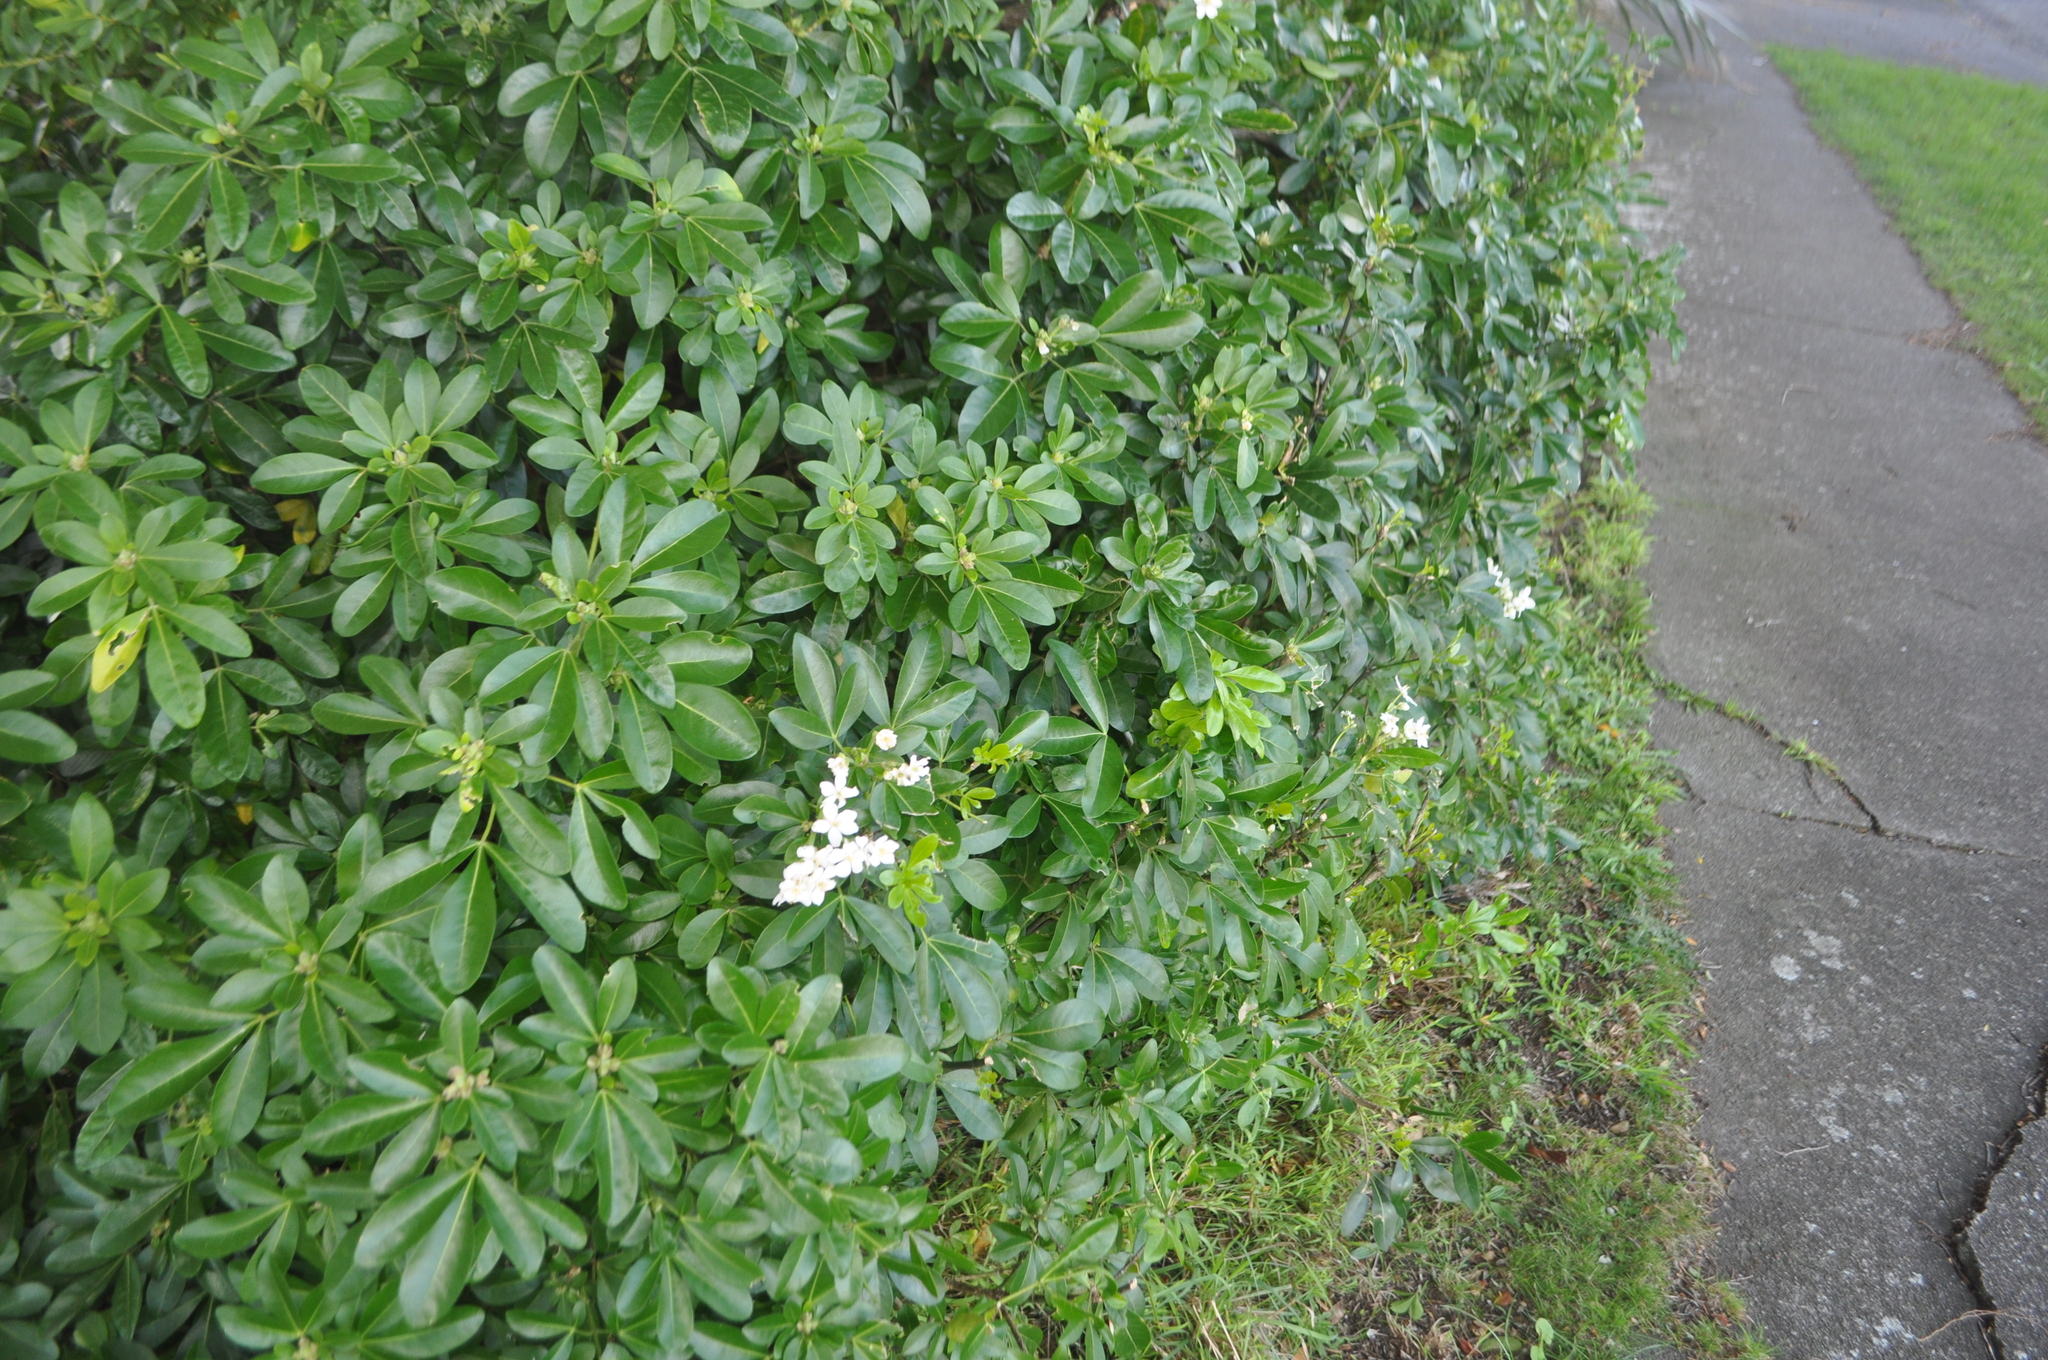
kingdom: Plantae
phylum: Tracheophyta
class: Magnoliopsida
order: Sapindales
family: Rutaceae
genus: Choisya
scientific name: Choisya ternata
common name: Mexican orange
